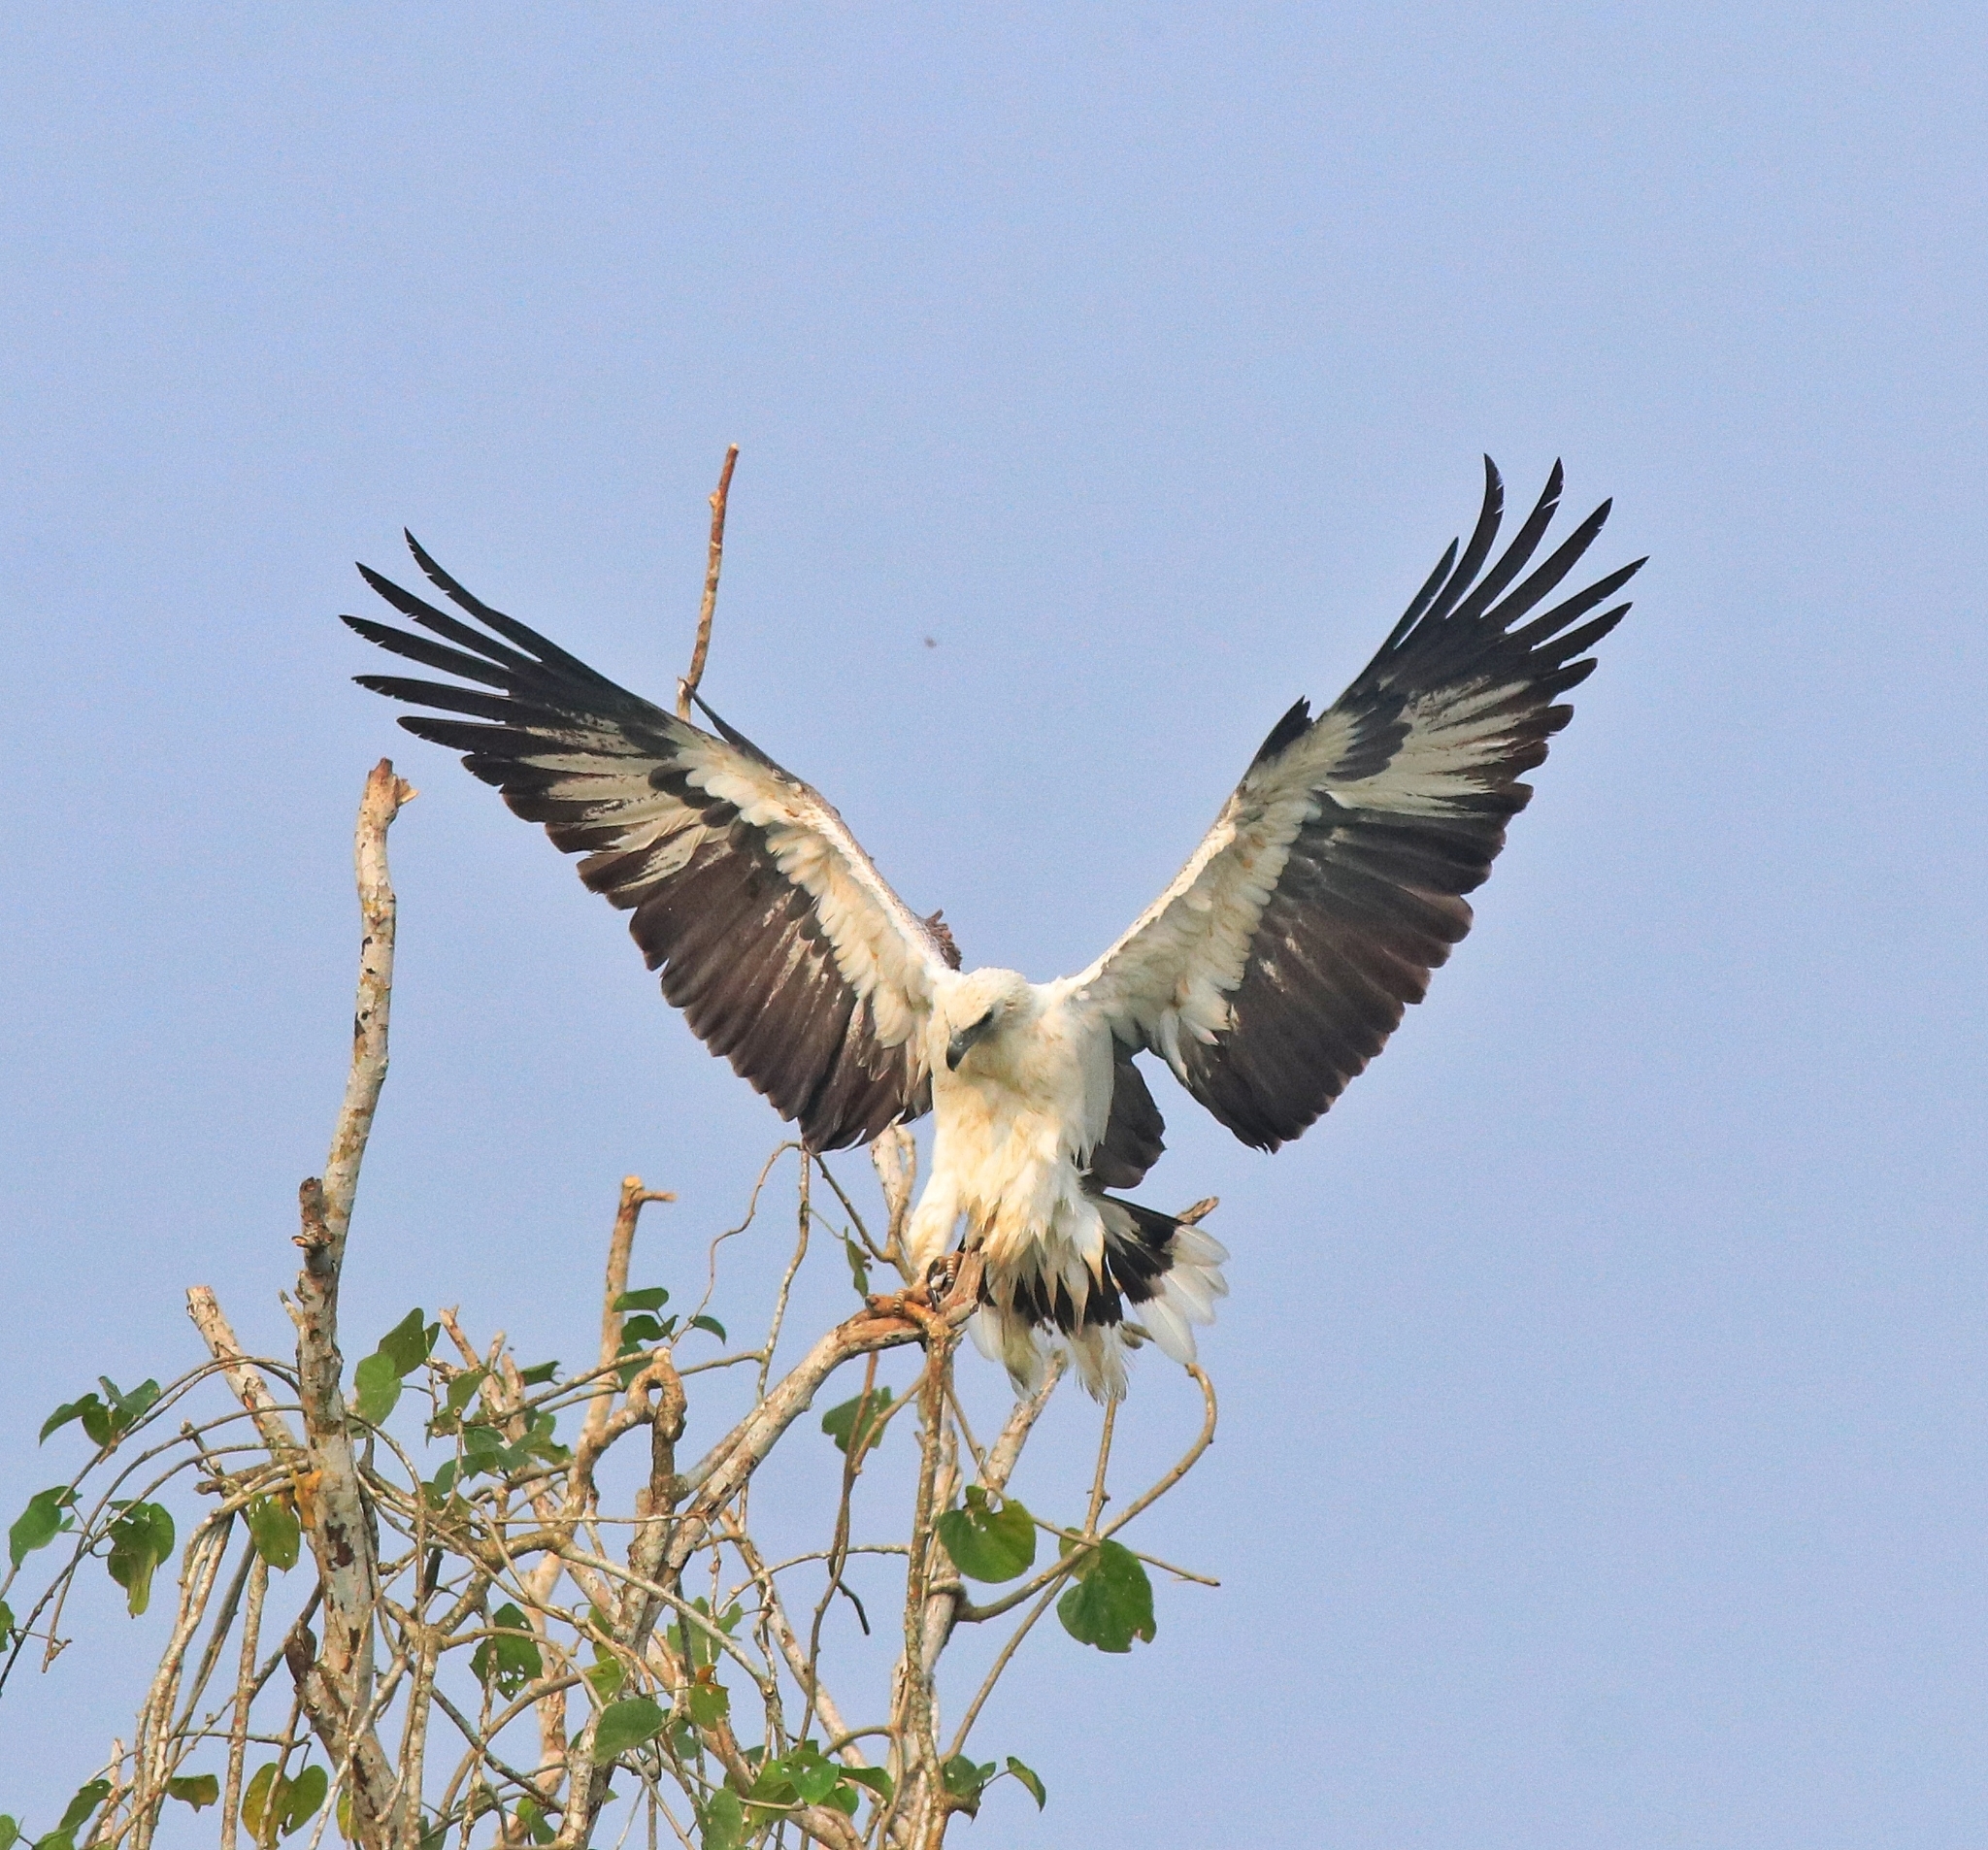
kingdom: Animalia
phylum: Chordata
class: Aves
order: Accipitriformes
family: Accipitridae
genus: Haliaeetus
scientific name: Haliaeetus leucogaster
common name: White-bellied sea eagle
